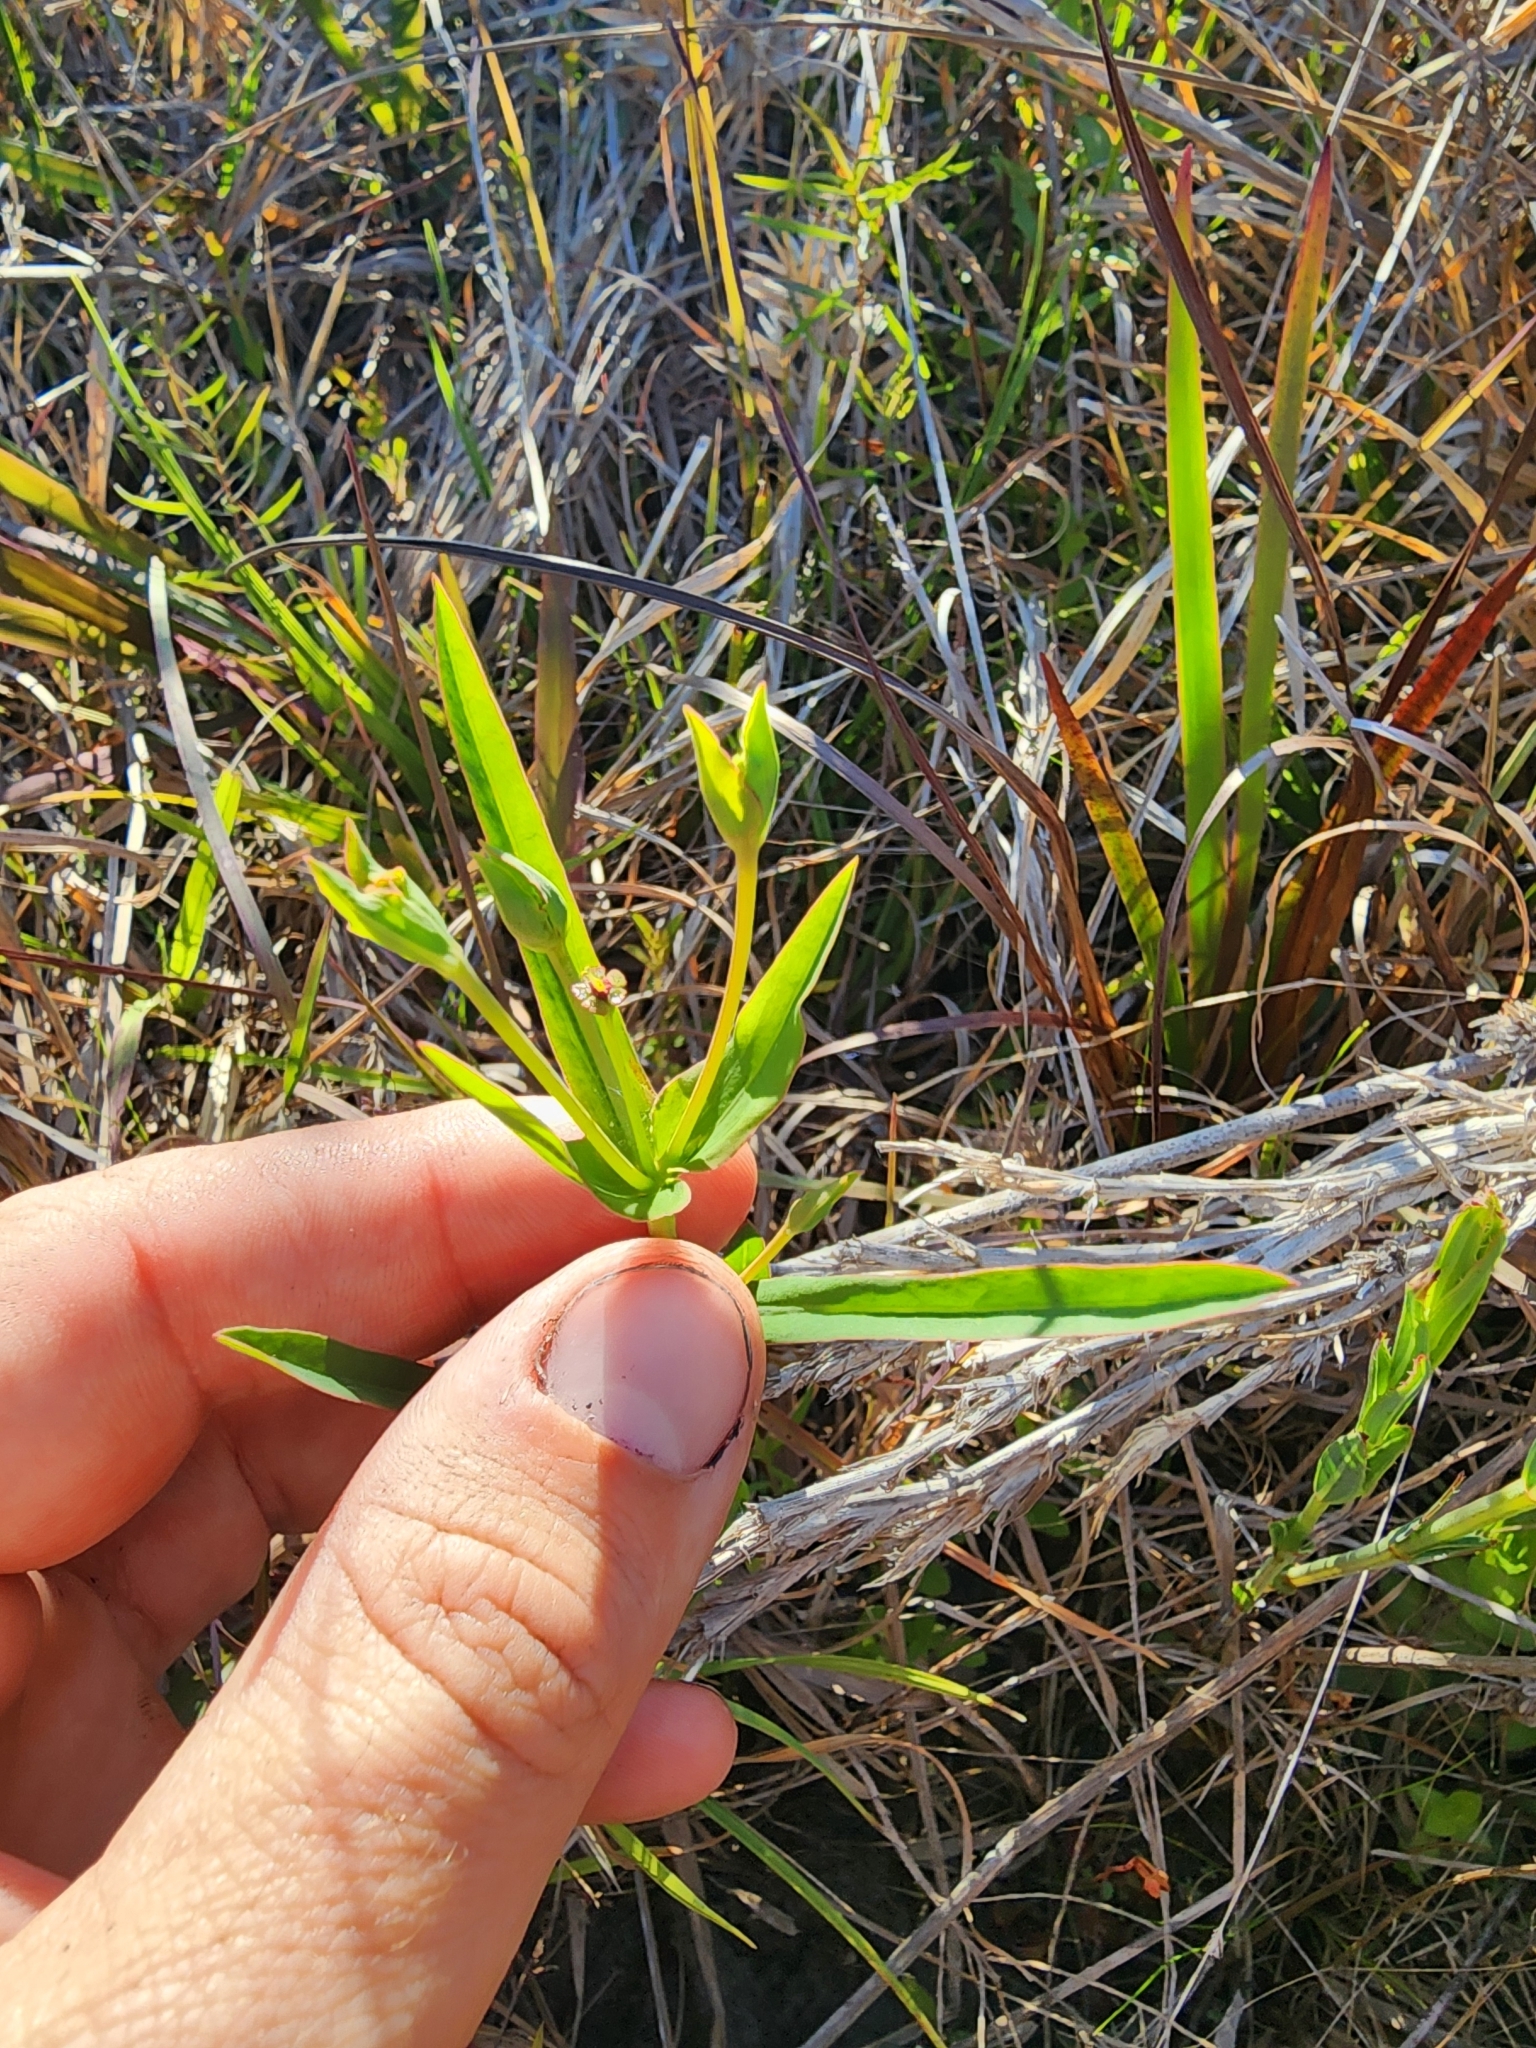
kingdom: Plantae
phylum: Tracheophyta
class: Magnoliopsida
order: Malpighiales
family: Euphorbiaceae
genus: Euphorbia
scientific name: Euphorbia inundata
